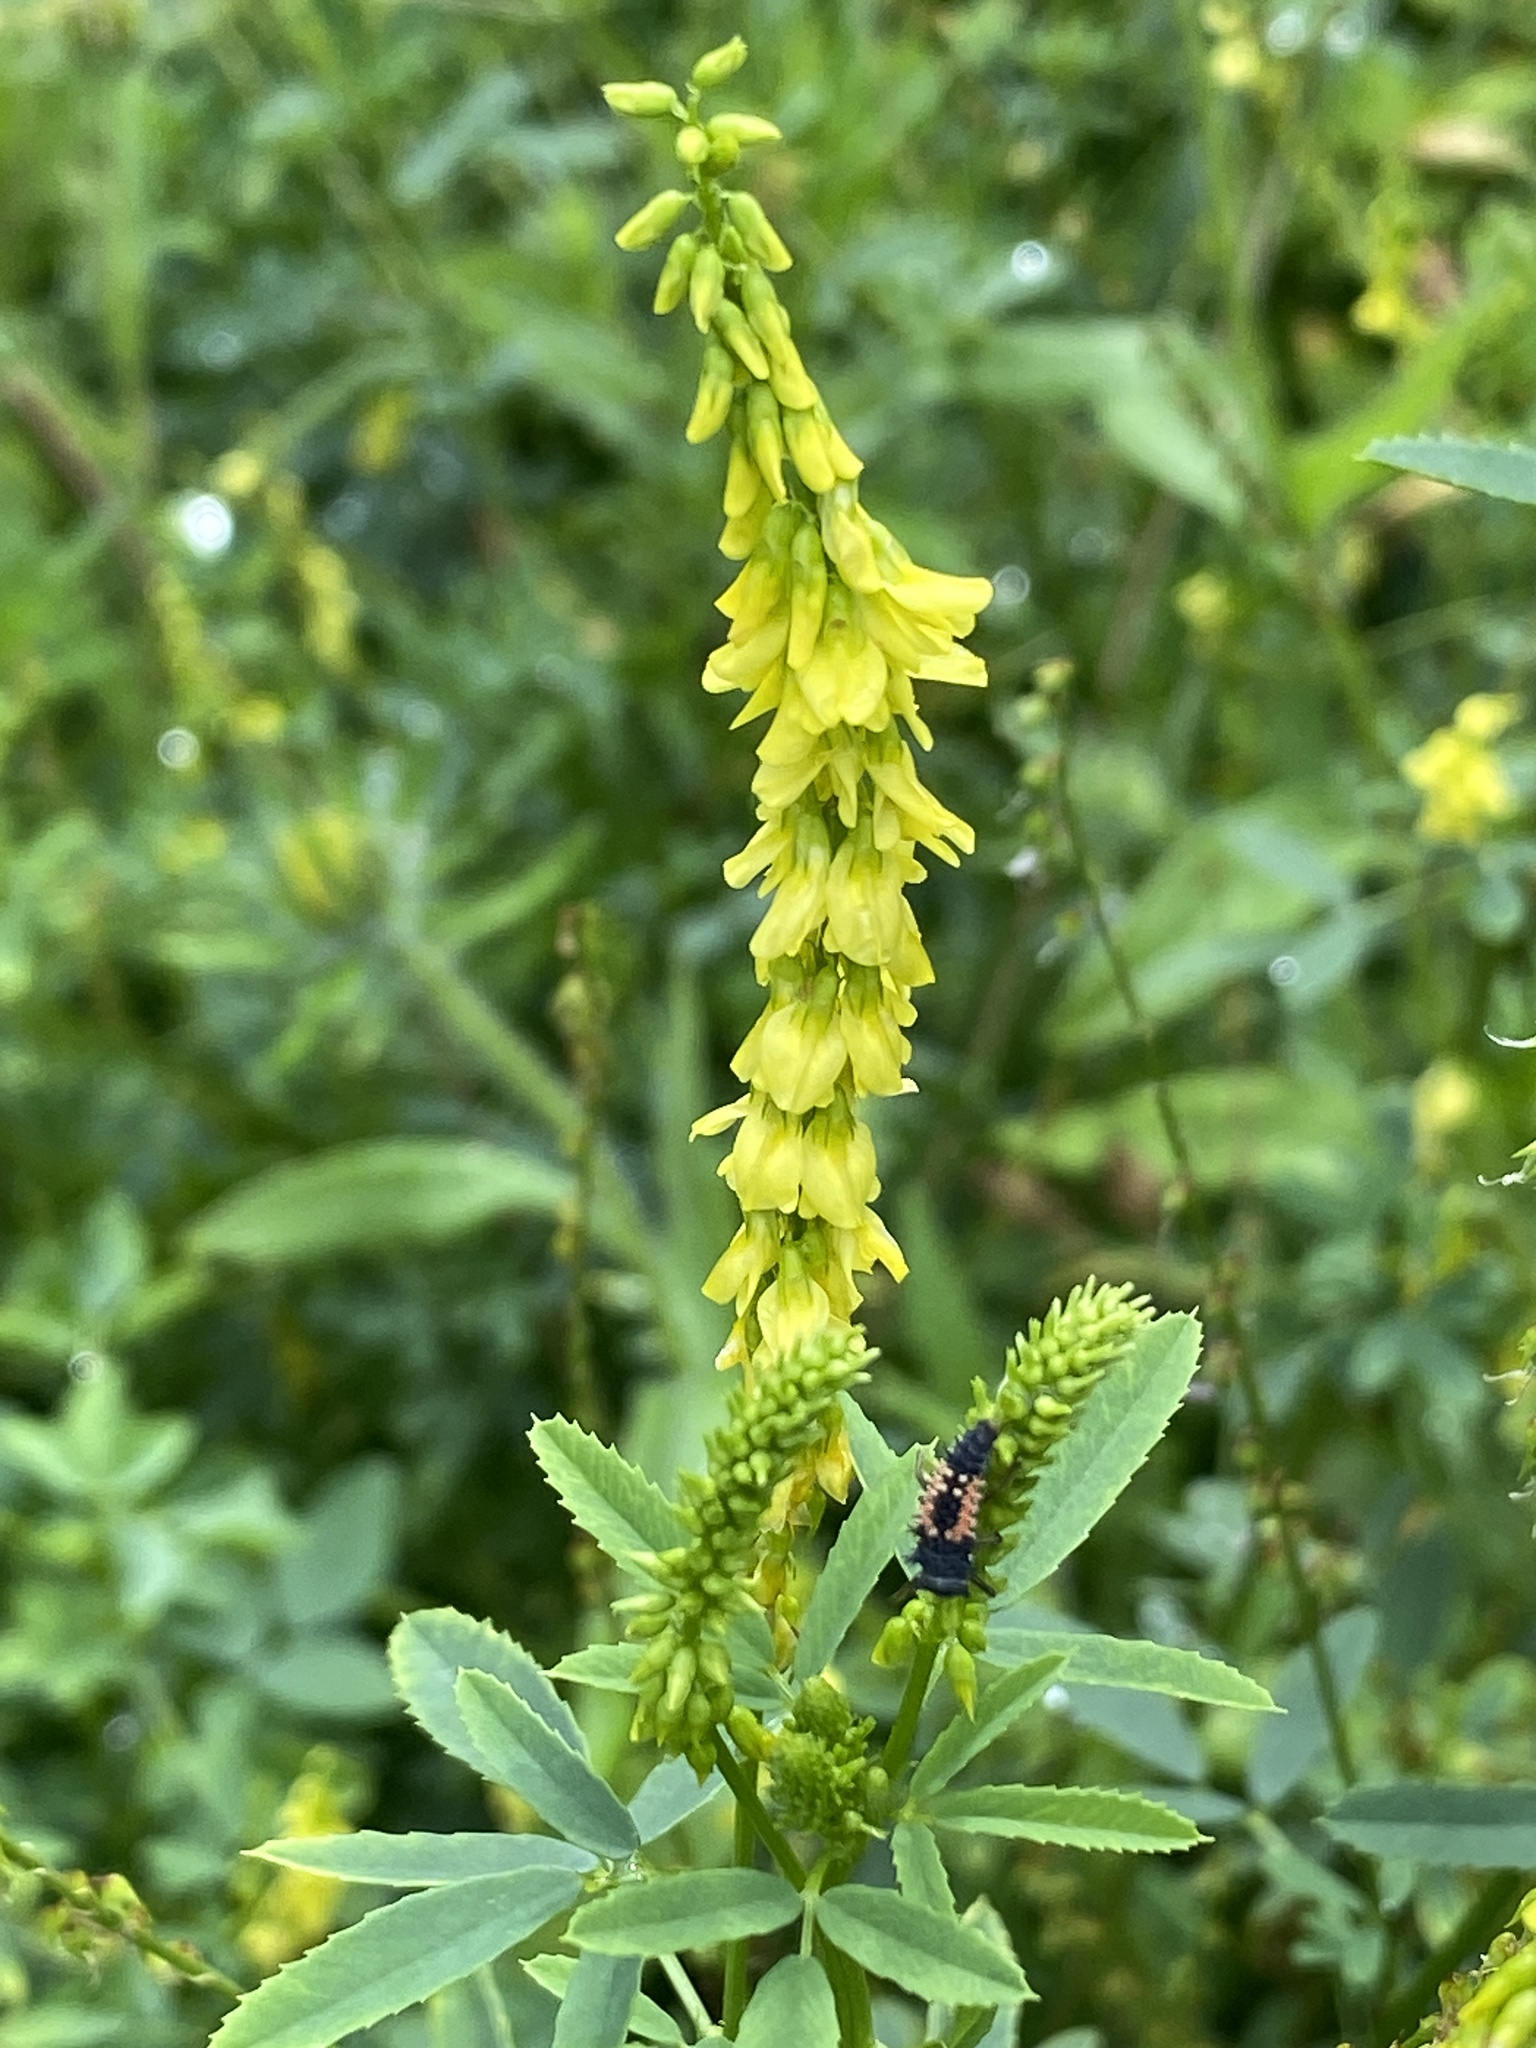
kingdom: Plantae
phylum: Tracheophyta
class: Magnoliopsida
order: Fabales
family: Fabaceae
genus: Melilotus
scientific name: Melilotus officinalis
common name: Sweetclover
